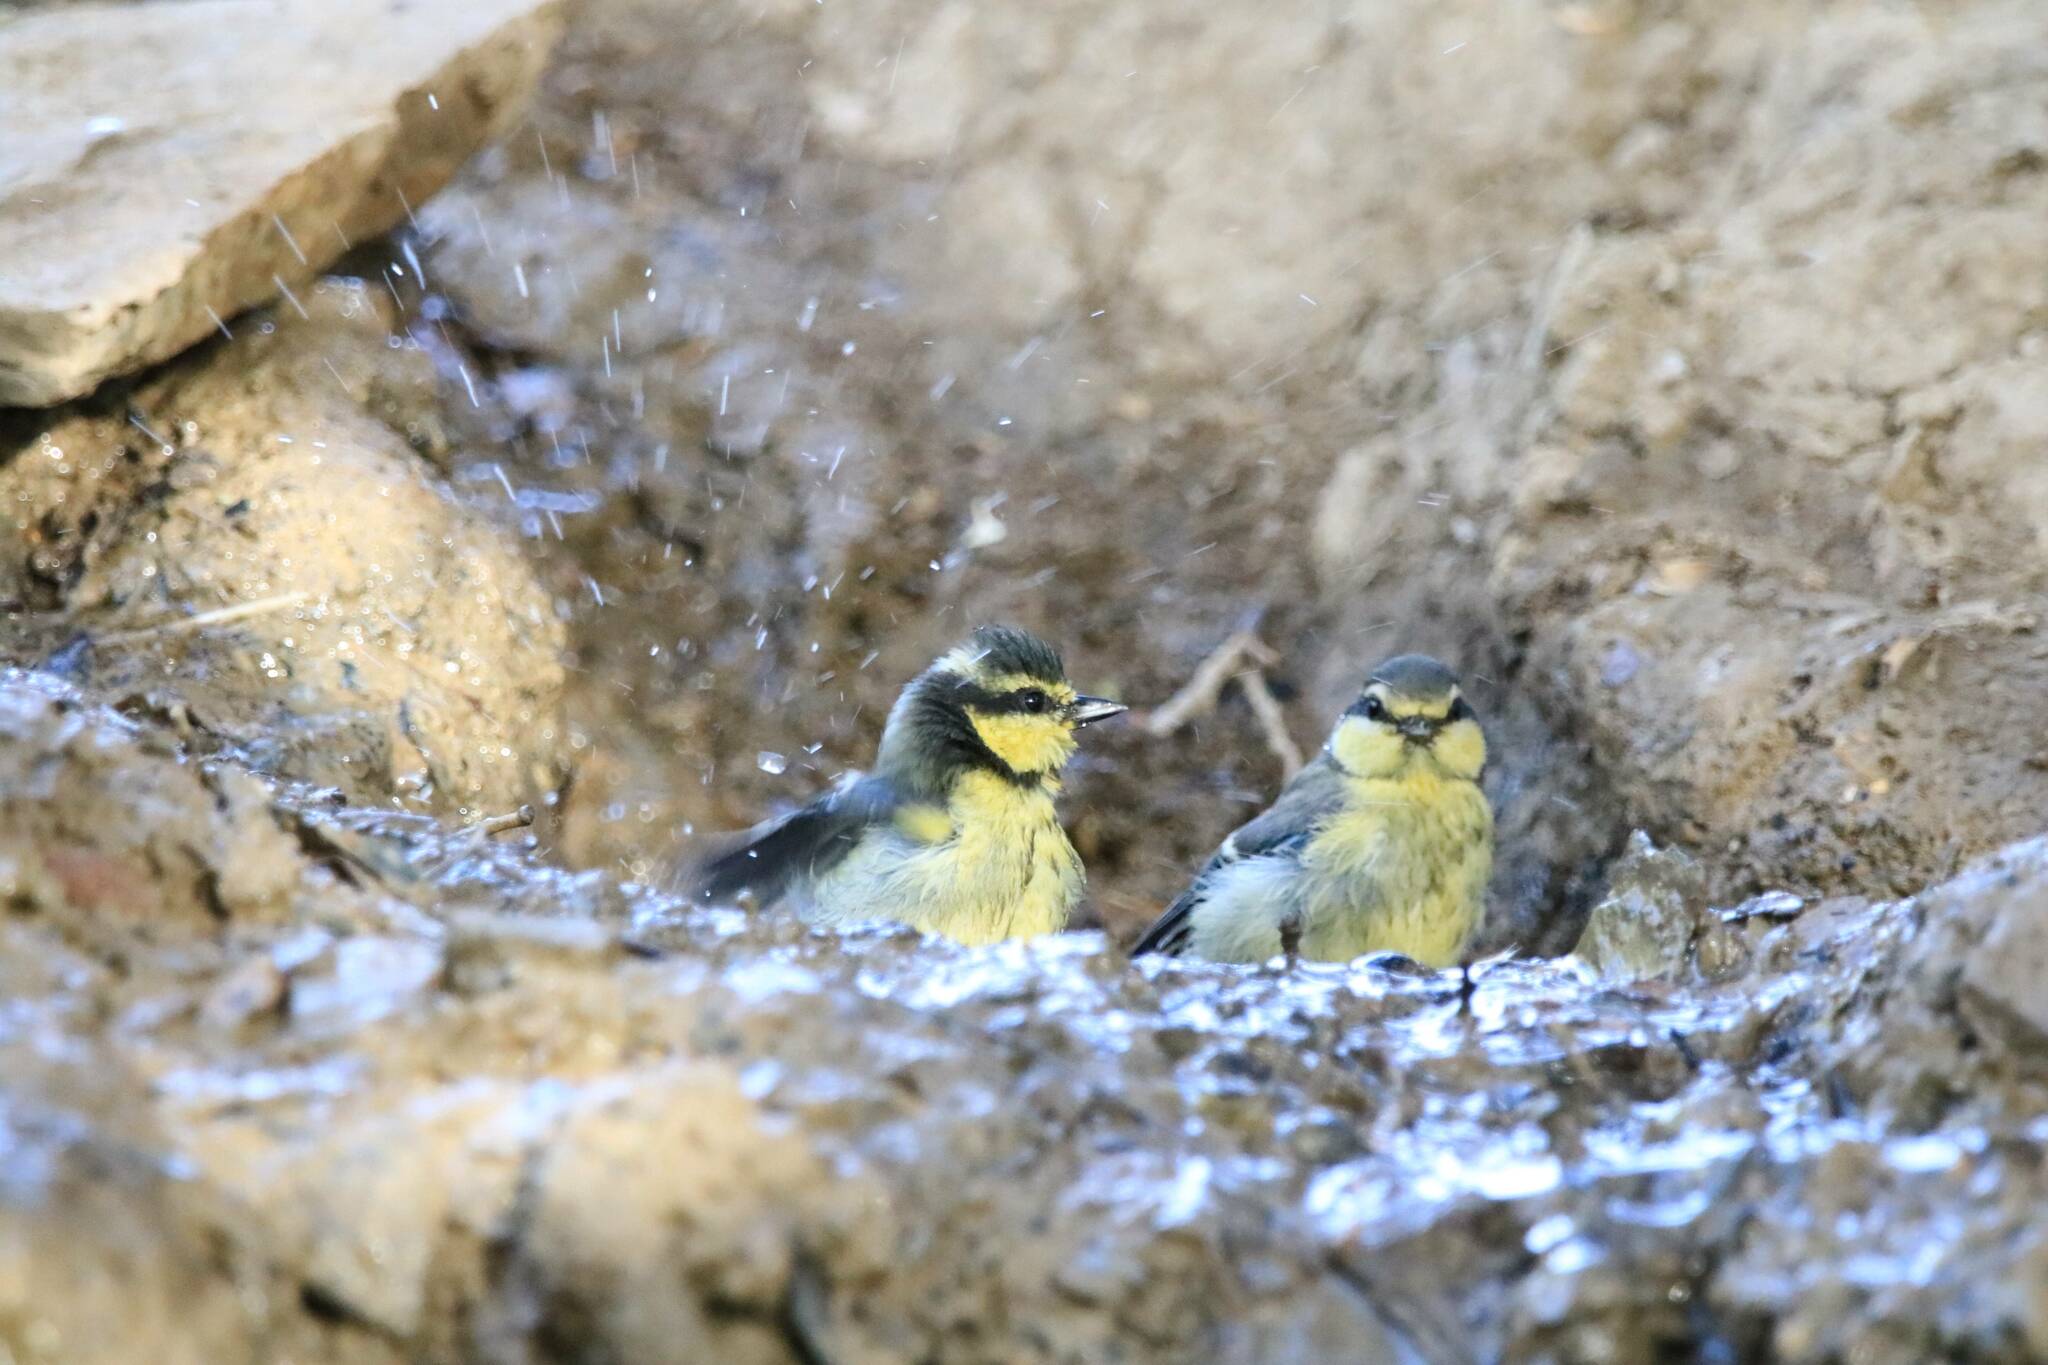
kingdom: Animalia
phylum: Chordata
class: Aves
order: Passeriformes
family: Paridae
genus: Cyanistes
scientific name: Cyanistes teneriffae
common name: African blue tit
